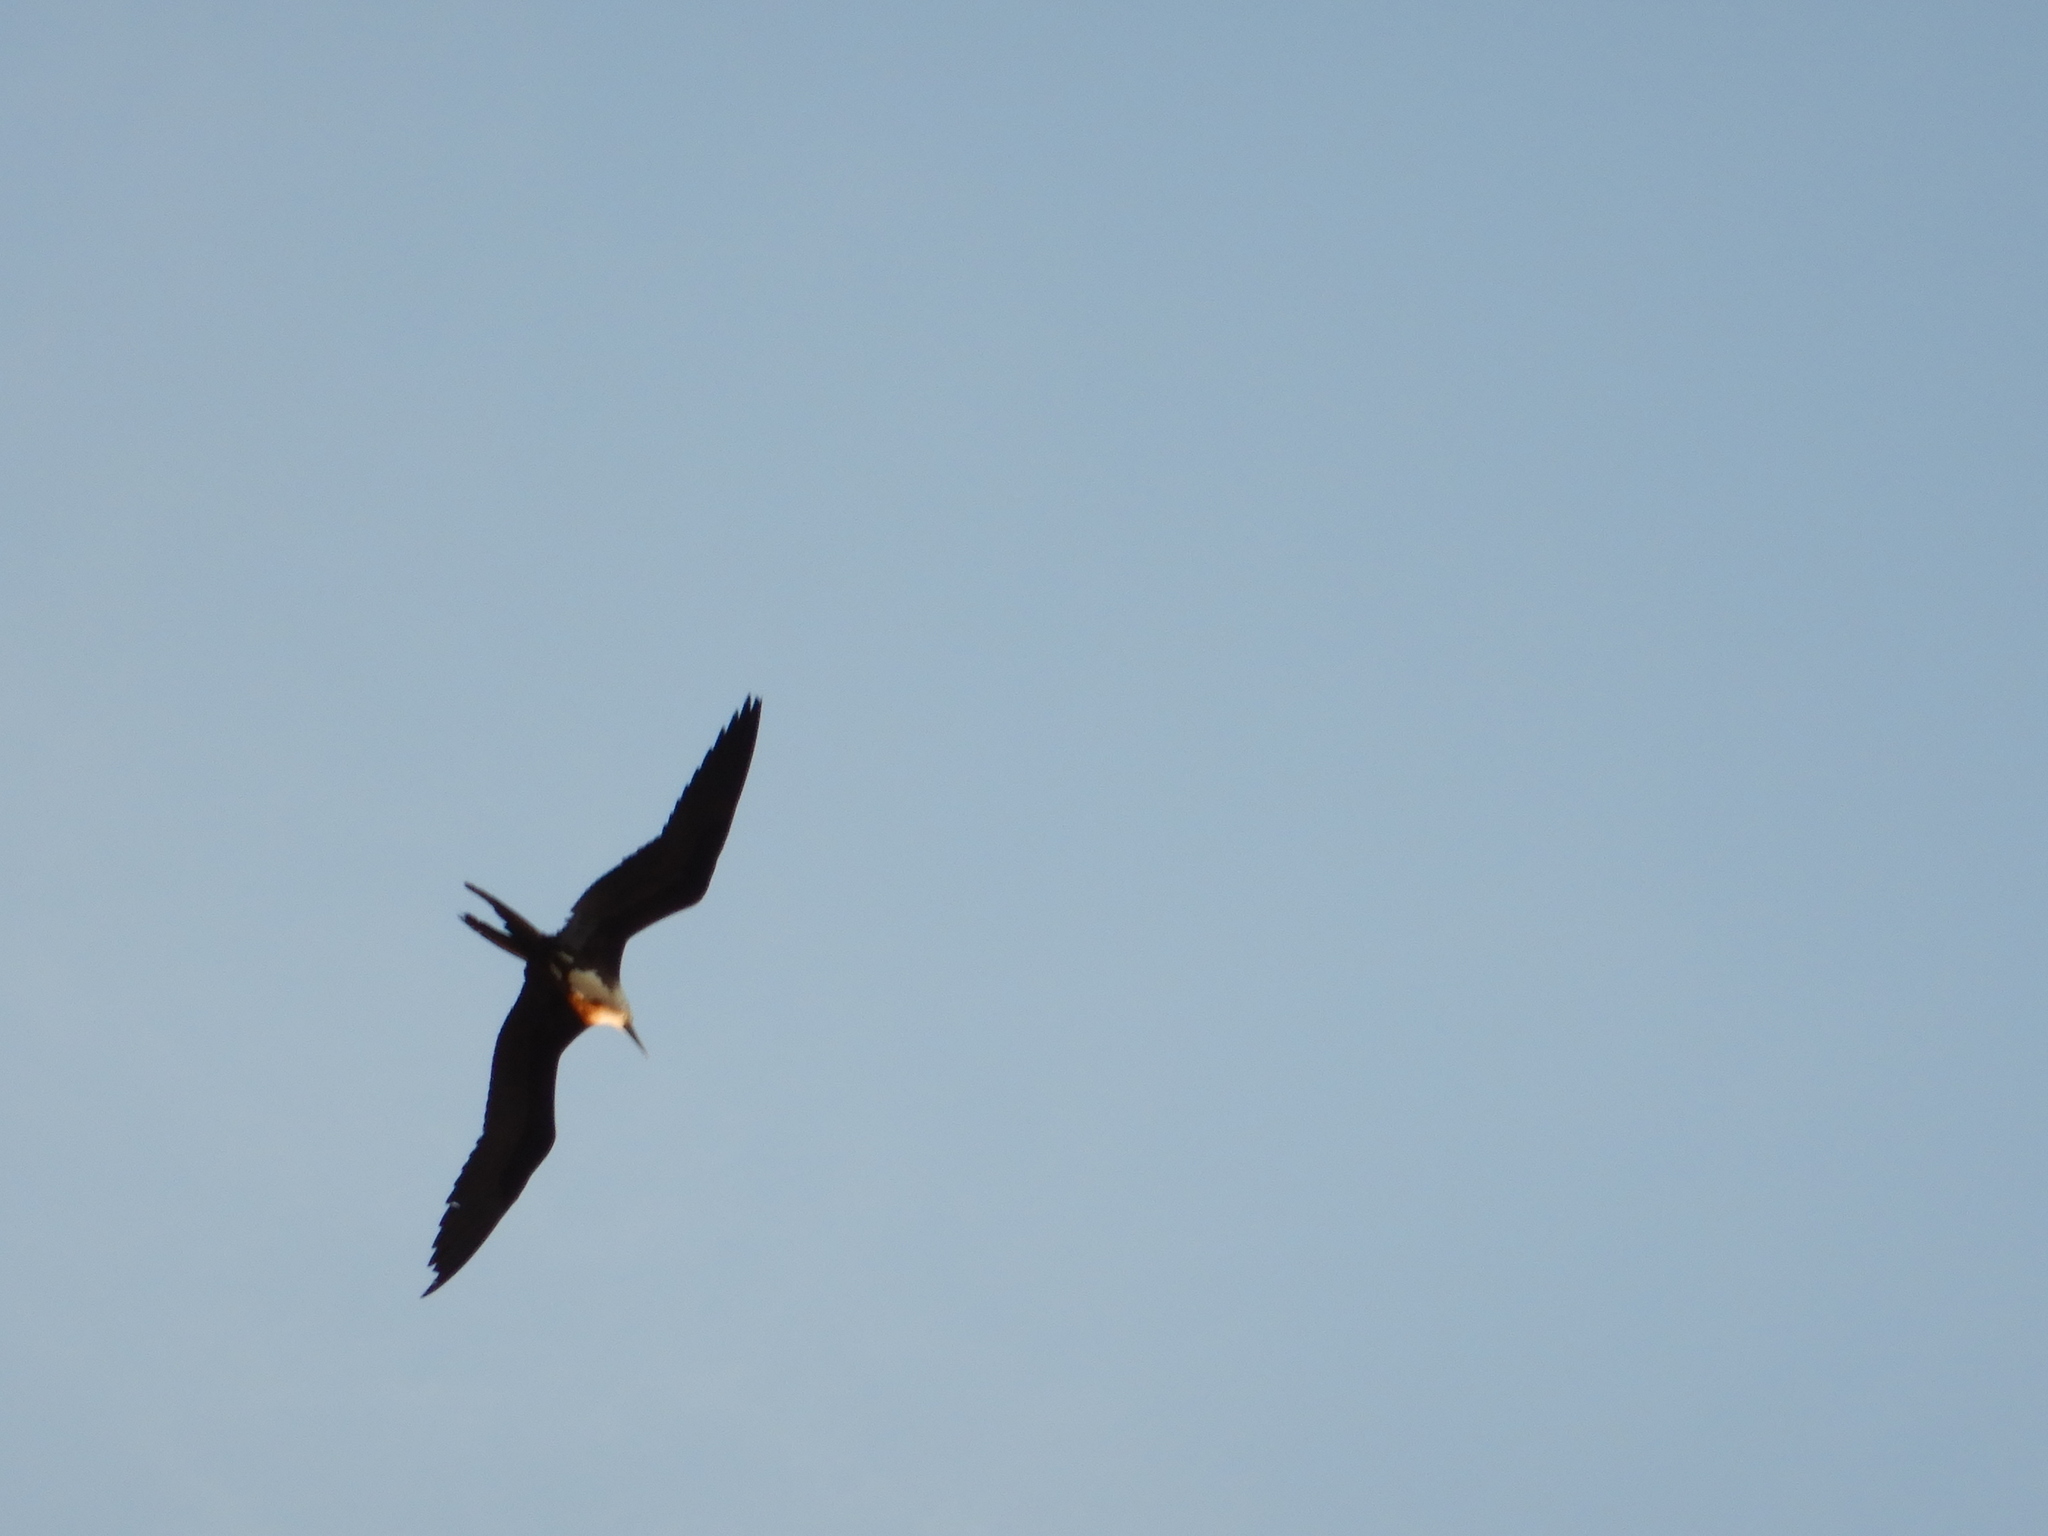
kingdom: Animalia
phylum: Chordata
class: Aves
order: Suliformes
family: Fregatidae
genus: Fregata
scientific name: Fregata magnificens
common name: Magnificent frigatebird
